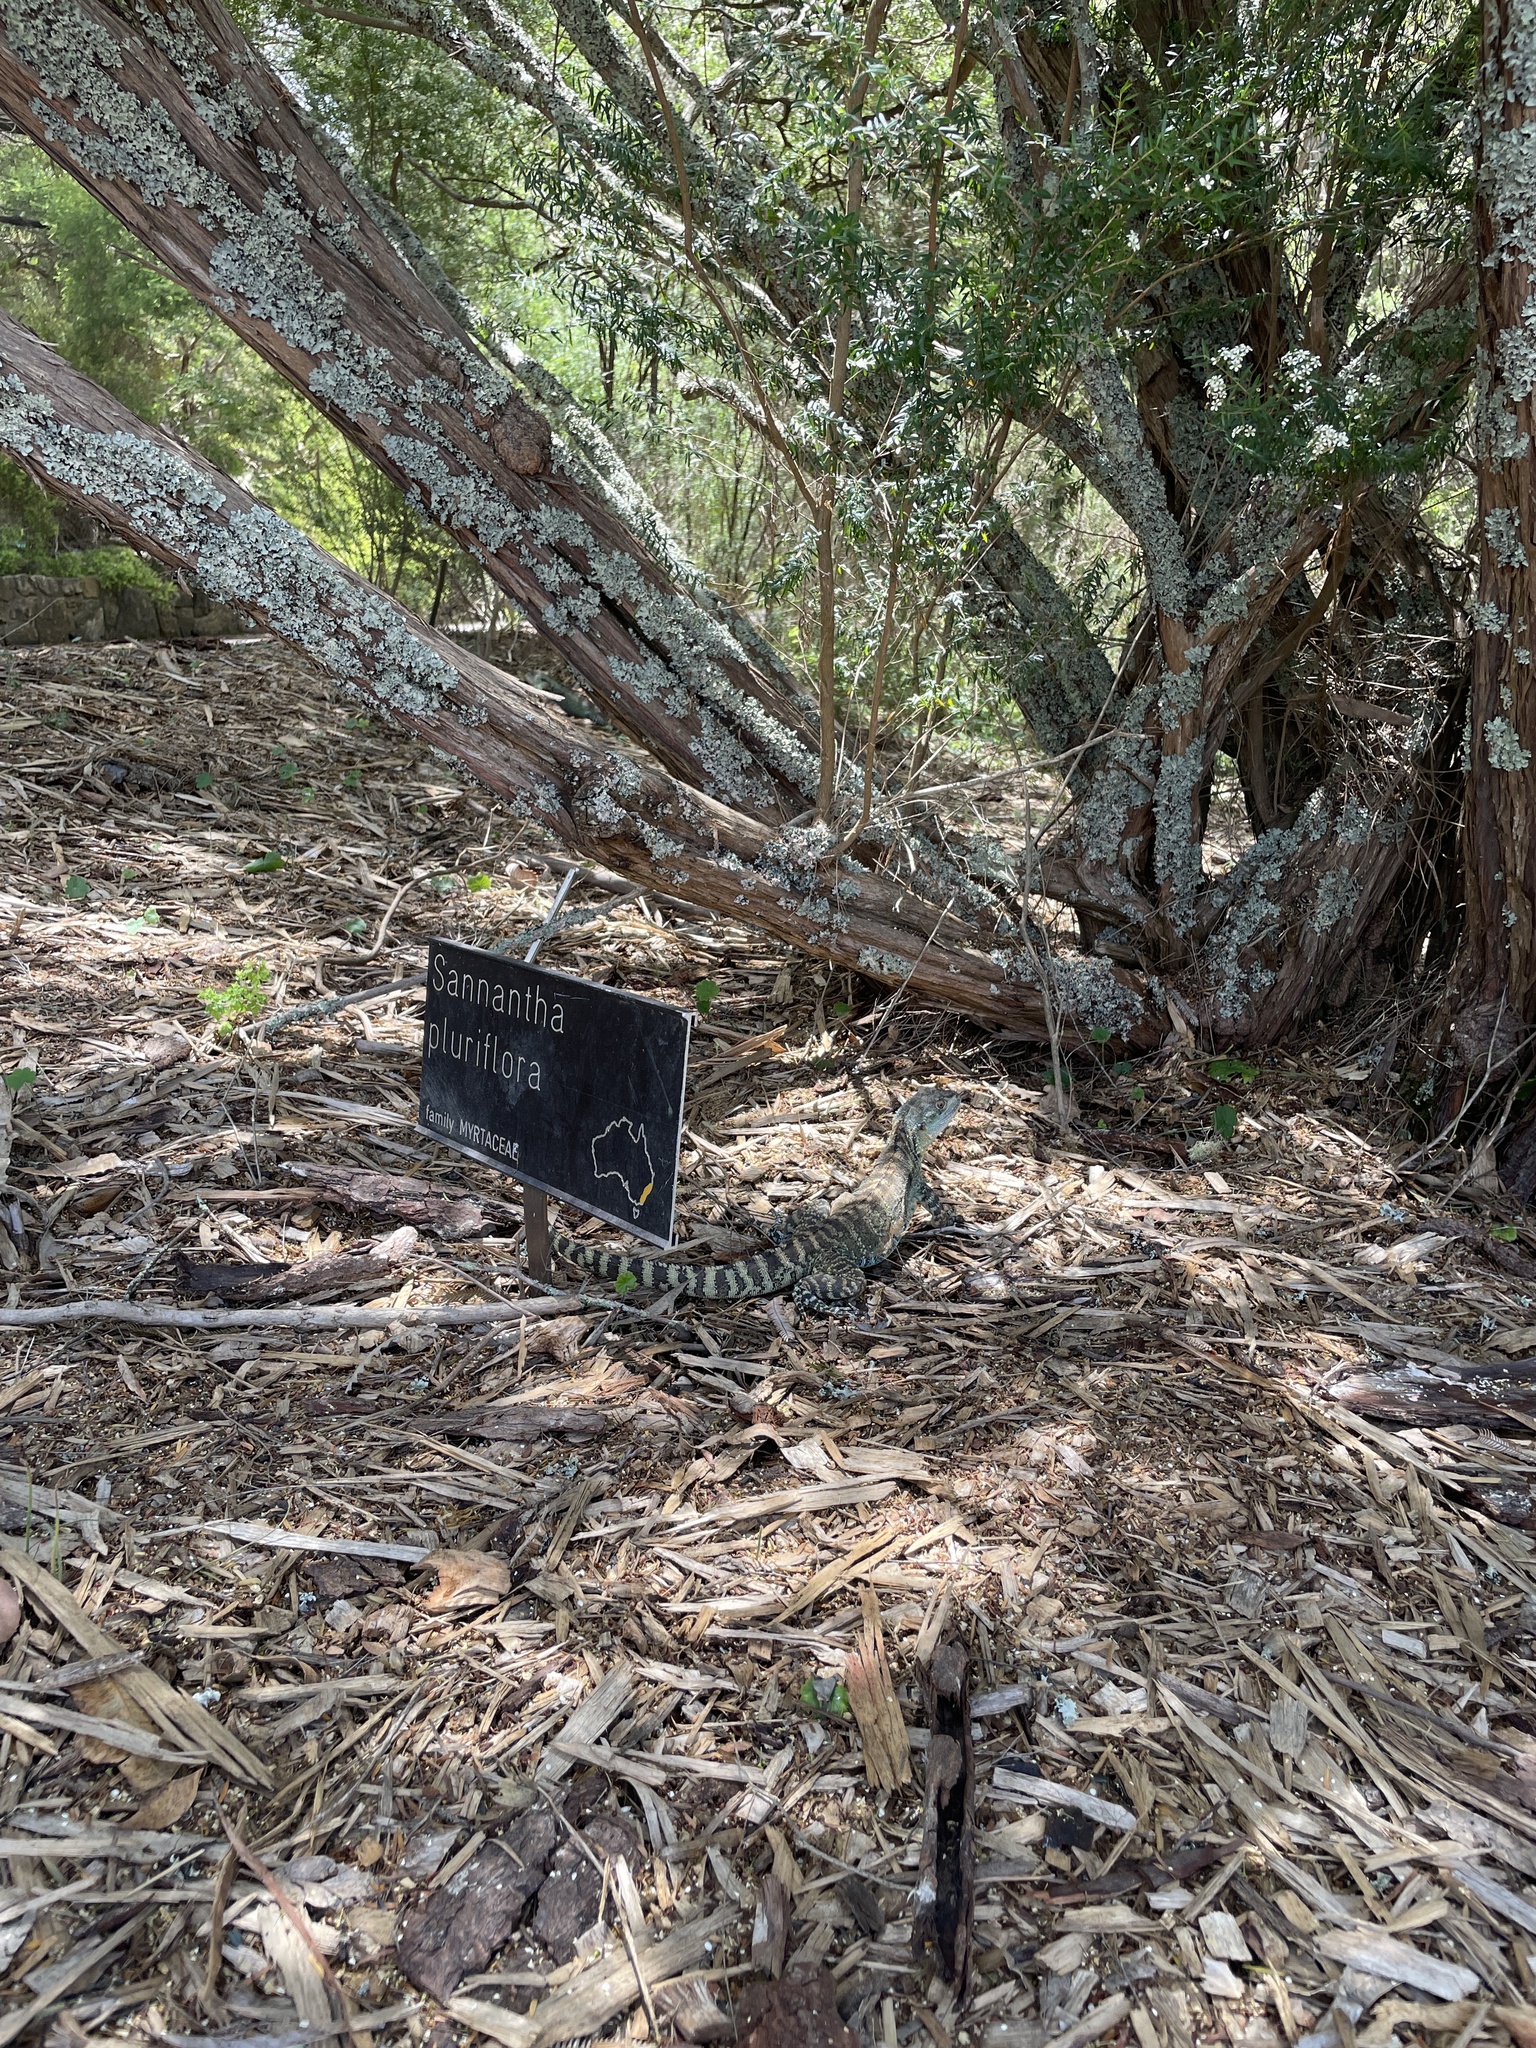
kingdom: Animalia
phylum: Chordata
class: Squamata
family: Agamidae
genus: Intellagama
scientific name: Intellagama lesueurii
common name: Eastern water dragon
